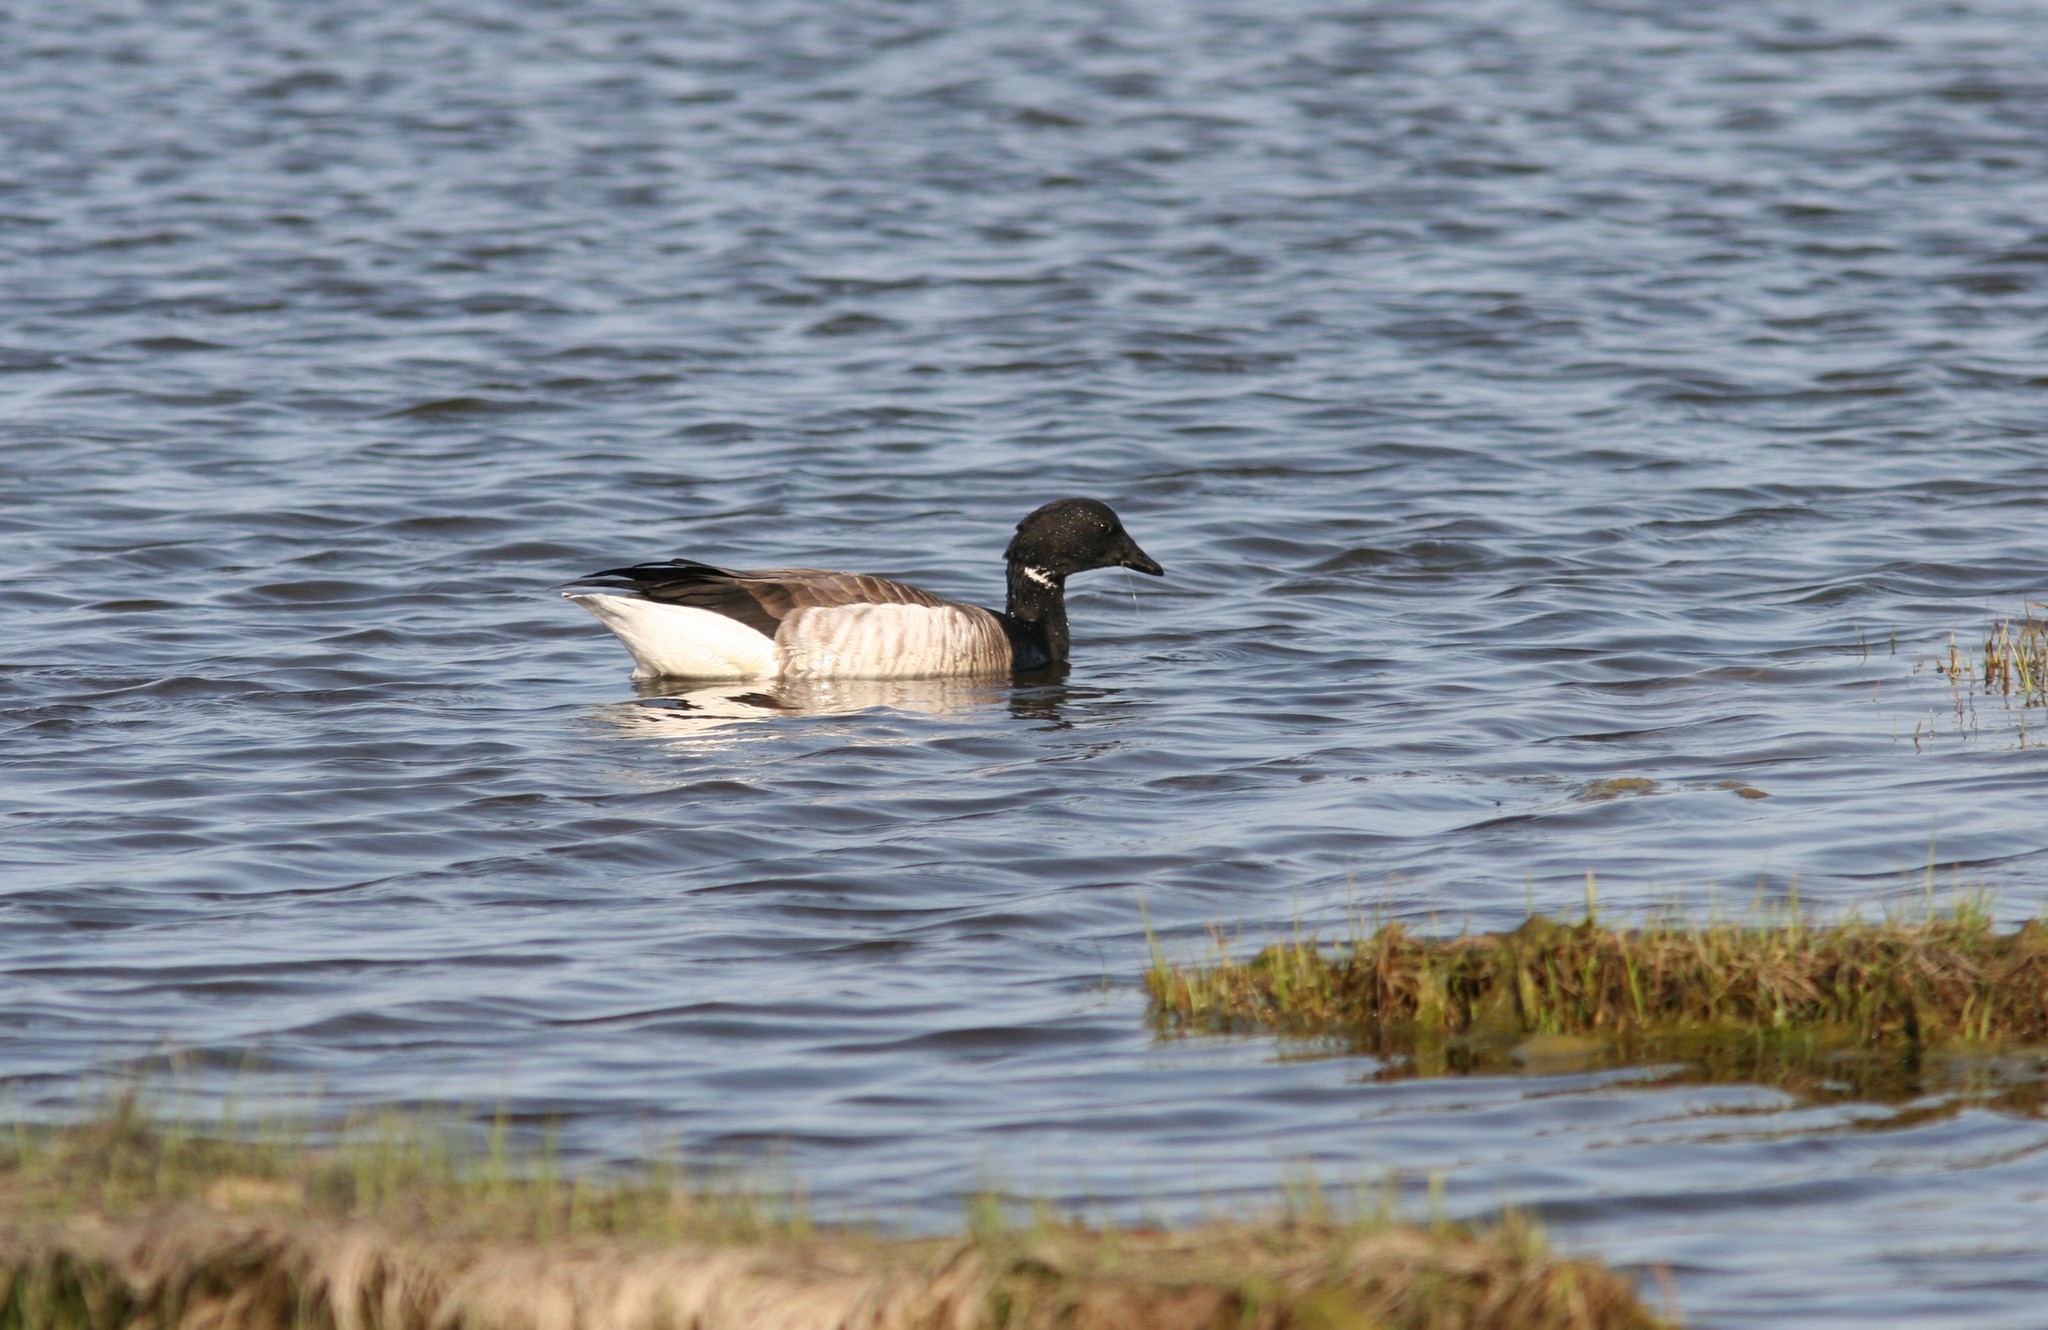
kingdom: Animalia
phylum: Chordata
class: Aves
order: Anseriformes
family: Anatidae
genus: Branta
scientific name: Branta bernicla
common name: Brant goose
